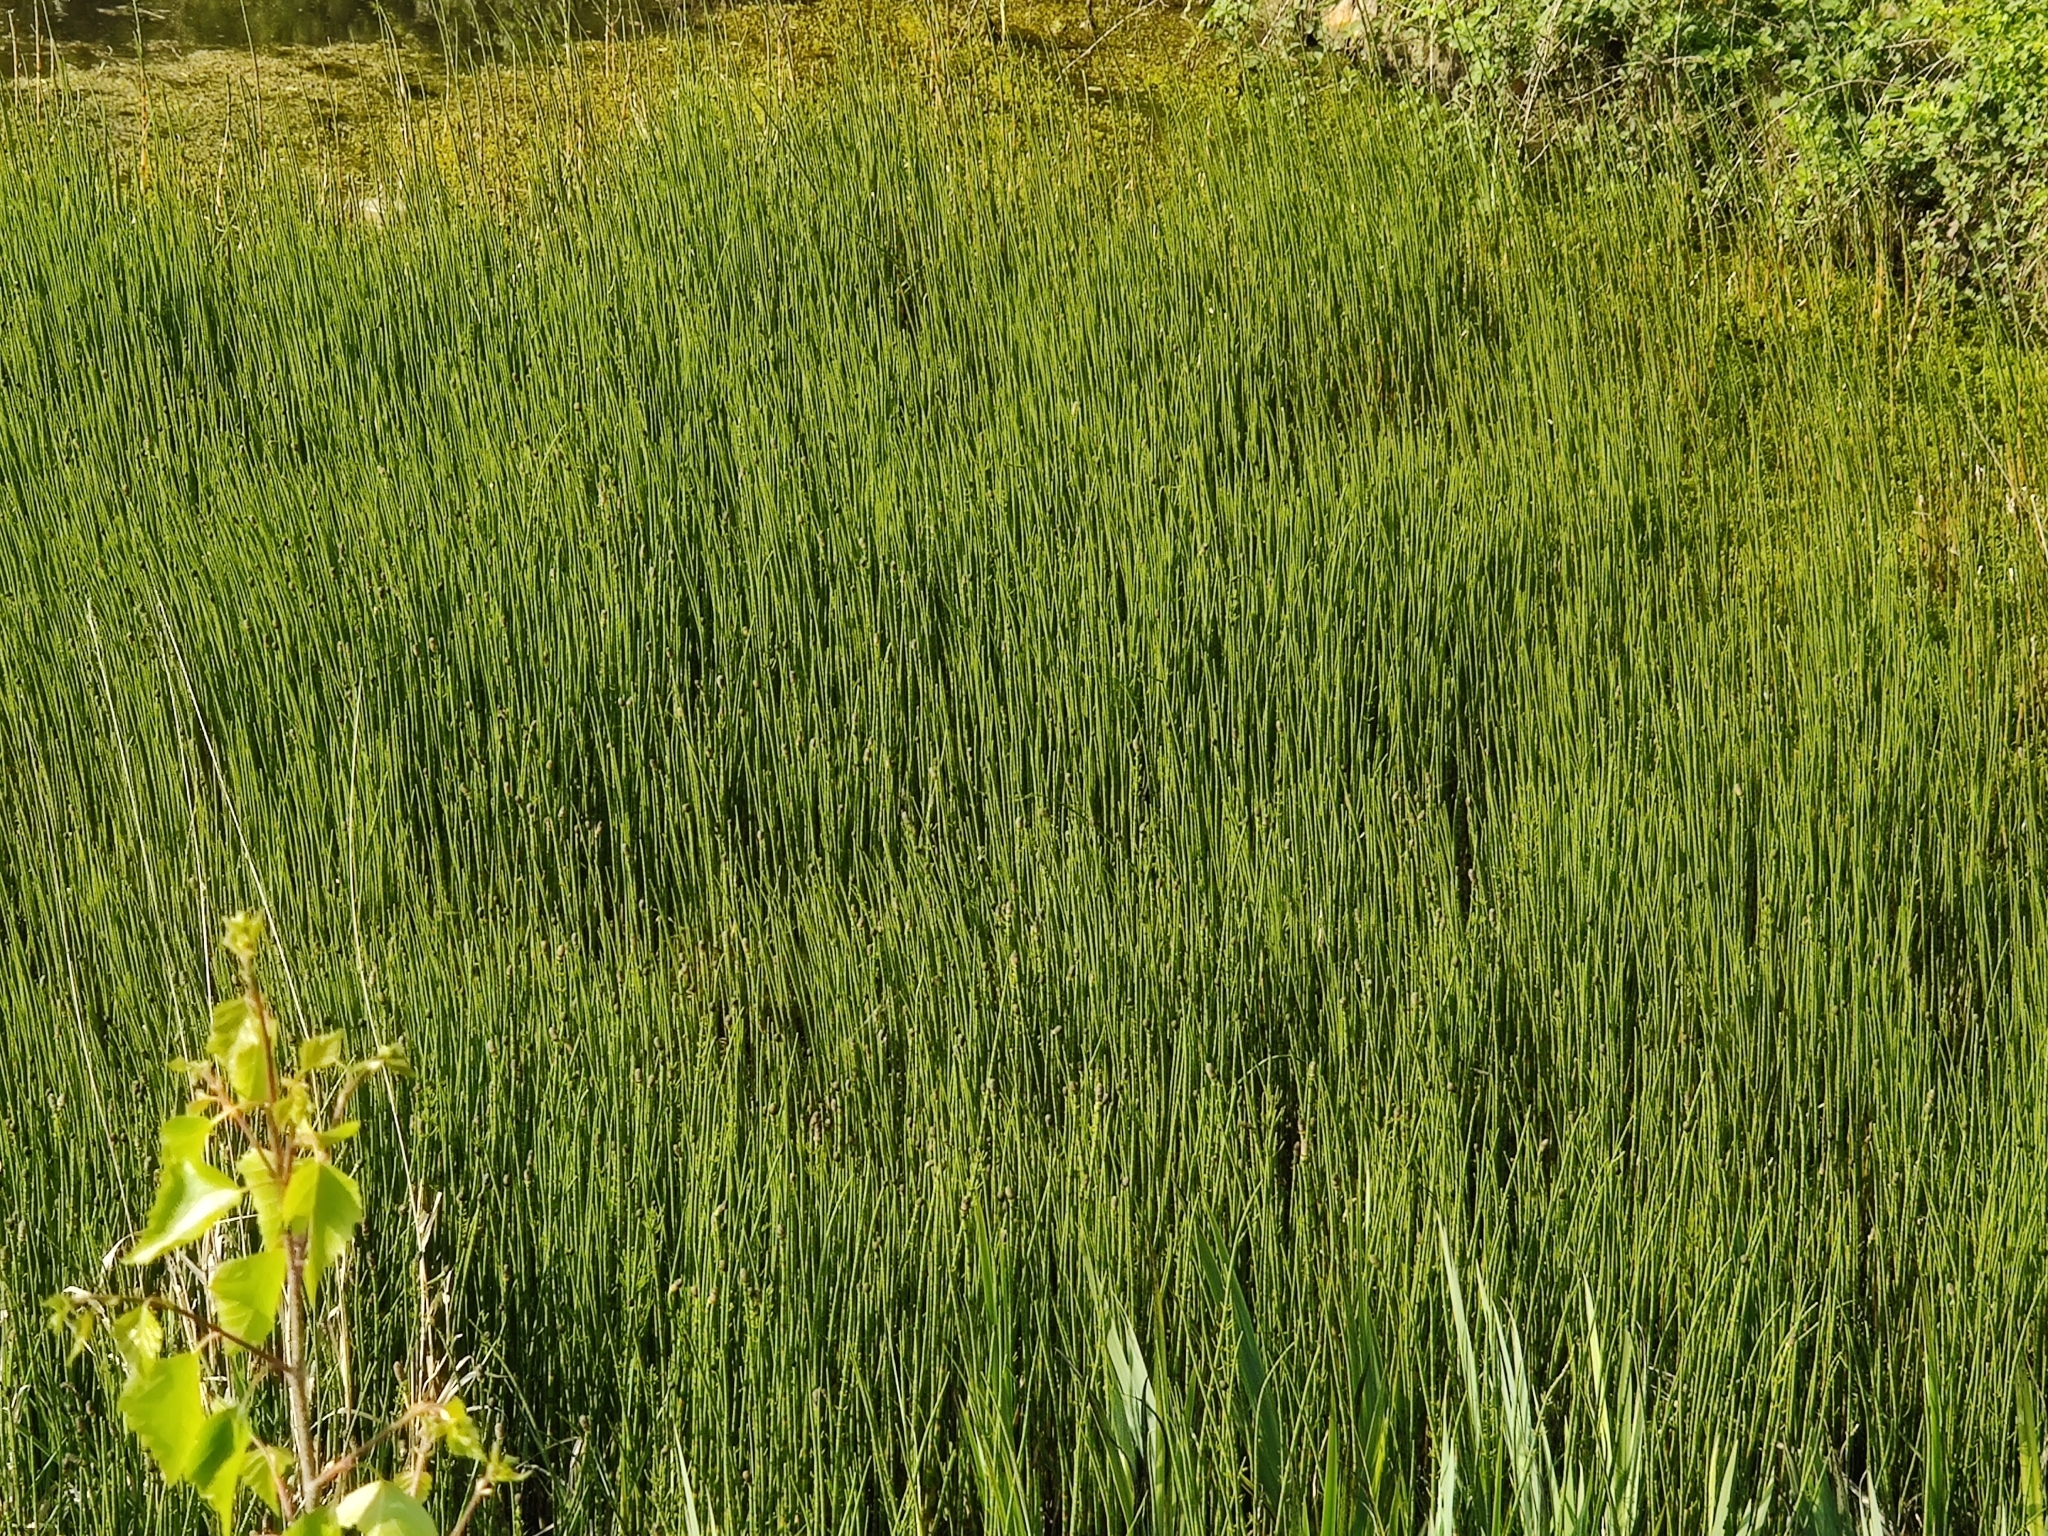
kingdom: Plantae
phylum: Tracheophyta
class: Polypodiopsida
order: Equisetales
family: Equisetaceae
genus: Equisetum
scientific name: Equisetum fluviatile
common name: Water horsetail
